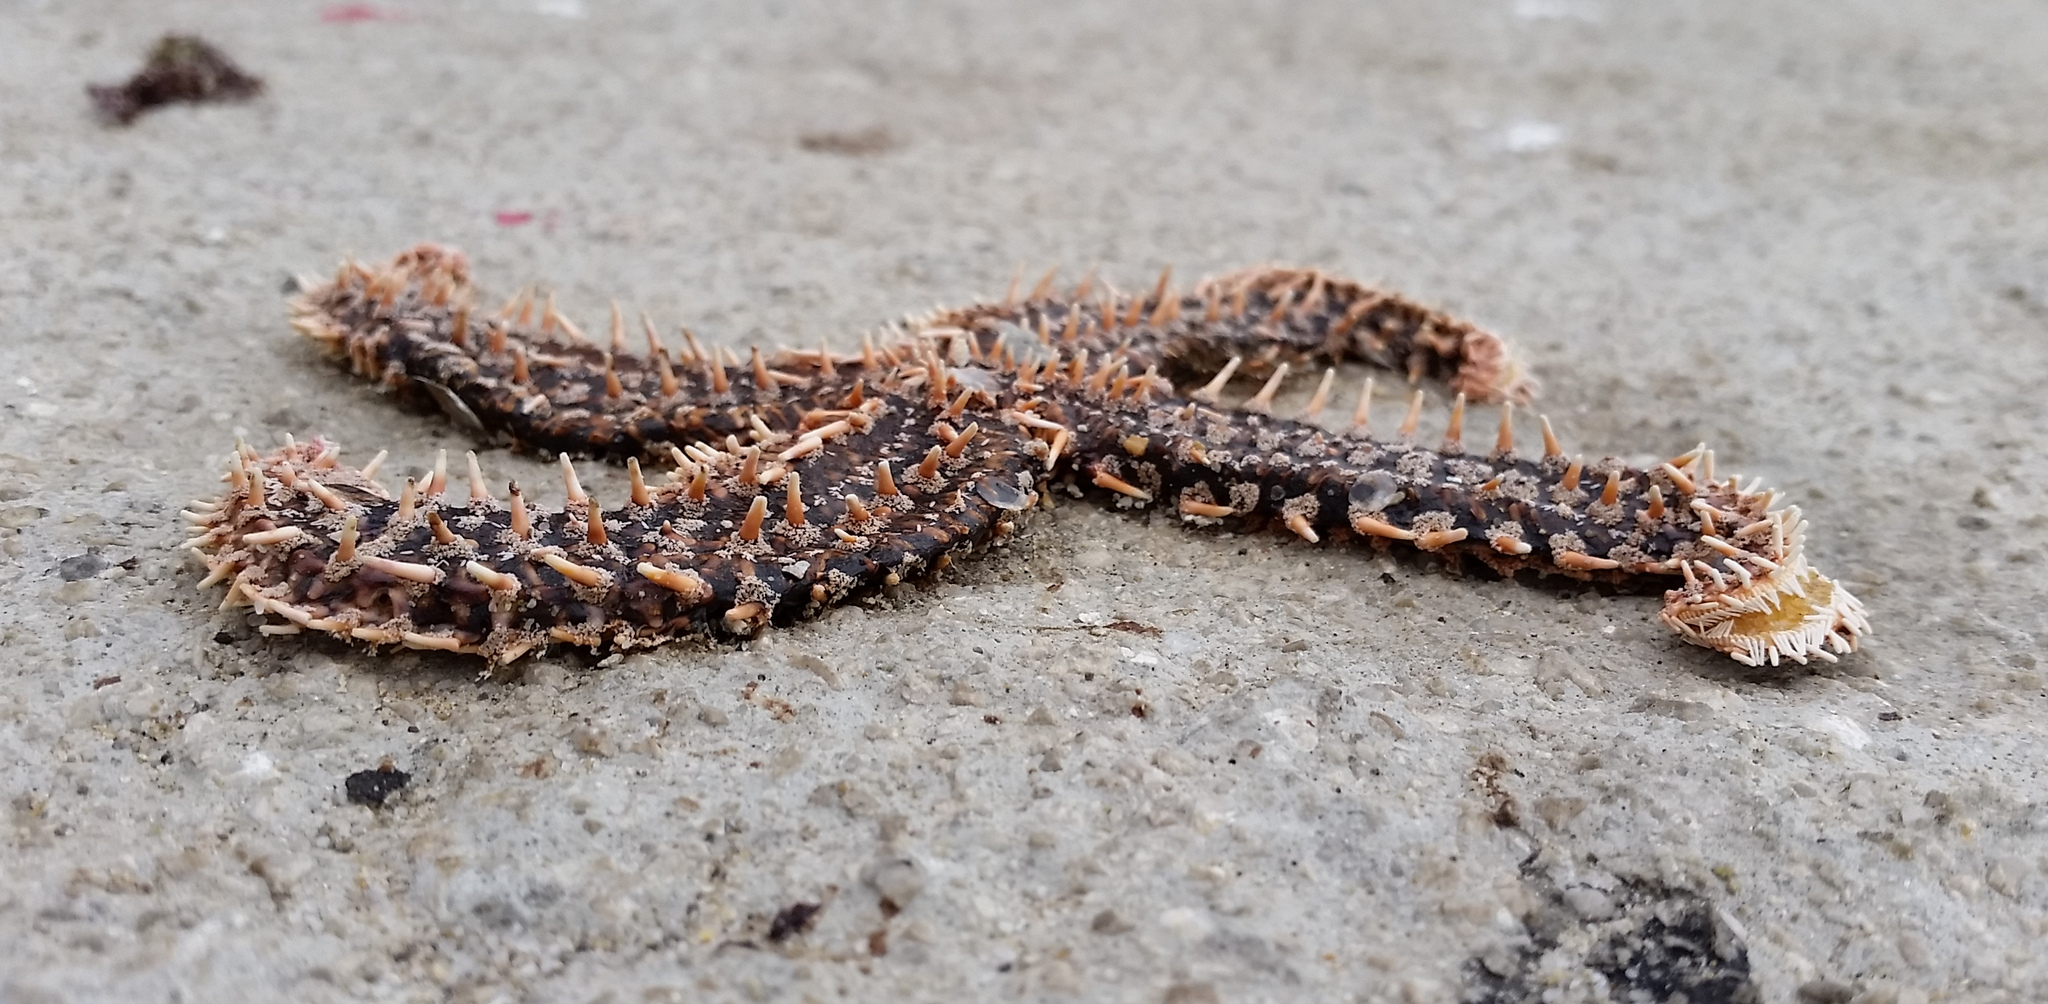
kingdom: Animalia
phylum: Echinodermata
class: Asteroidea
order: Forcipulatida
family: Asteriidae
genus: Marthasterias
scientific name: Marthasterias glacialis
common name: Spiny starfish
